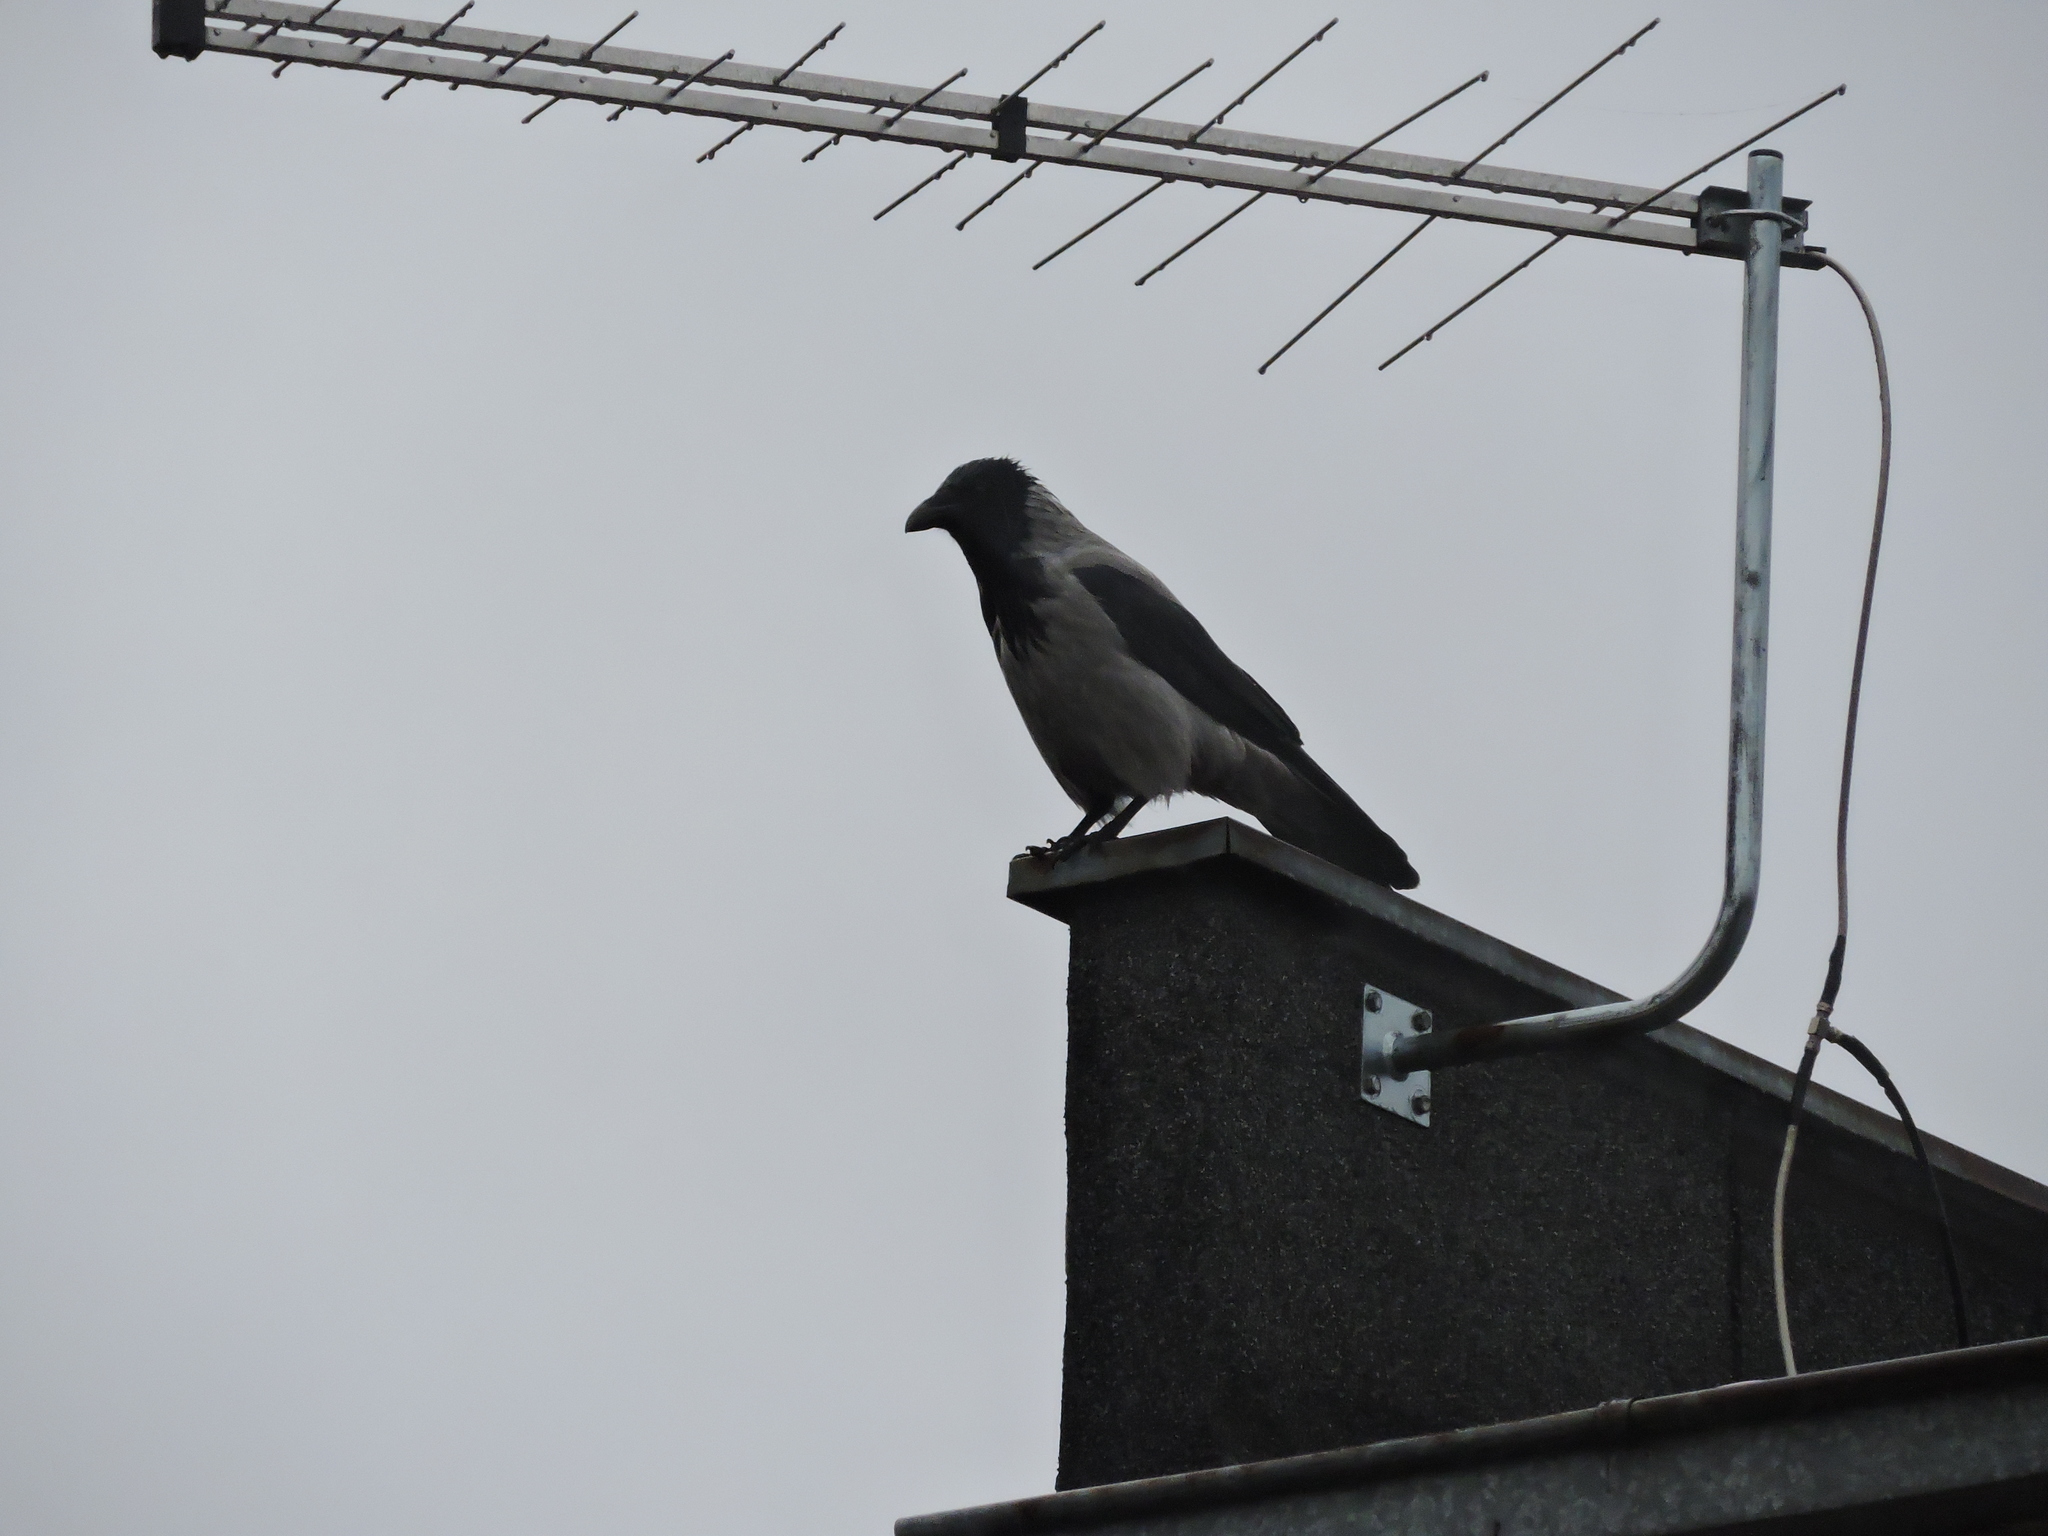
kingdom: Animalia
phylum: Chordata
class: Aves
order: Passeriformes
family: Corvidae
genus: Corvus
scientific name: Corvus cornix
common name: Hooded crow
